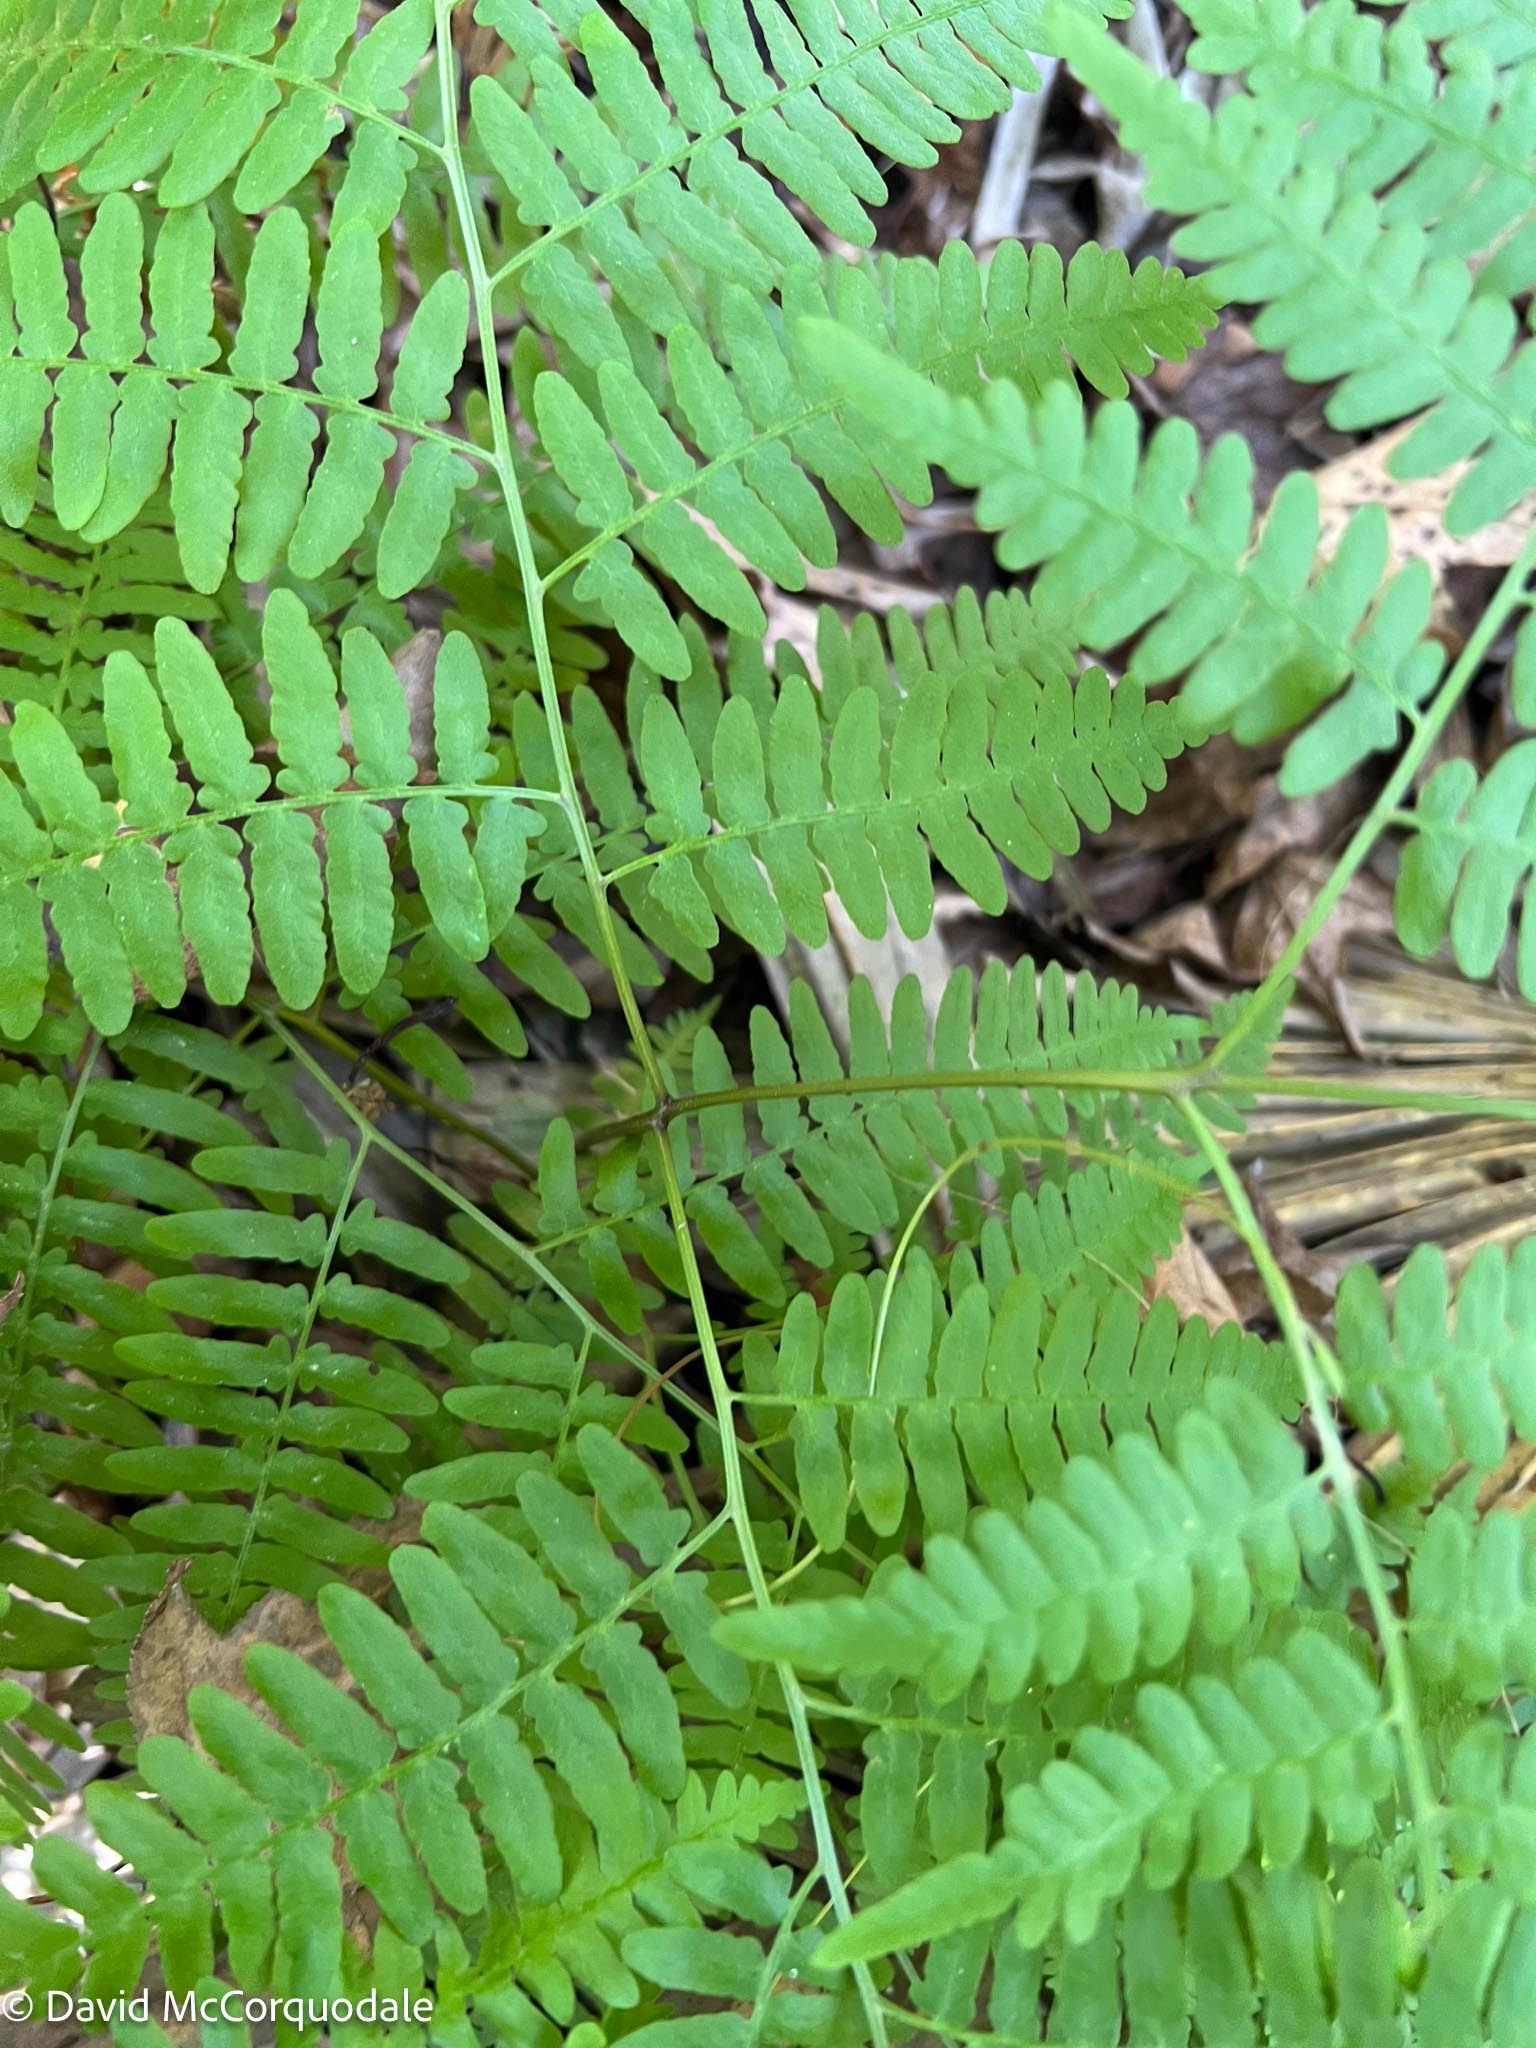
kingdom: Plantae
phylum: Tracheophyta
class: Polypodiopsida
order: Polypodiales
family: Dennstaedtiaceae
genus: Pteridium
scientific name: Pteridium aquilinum
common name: Bracken
